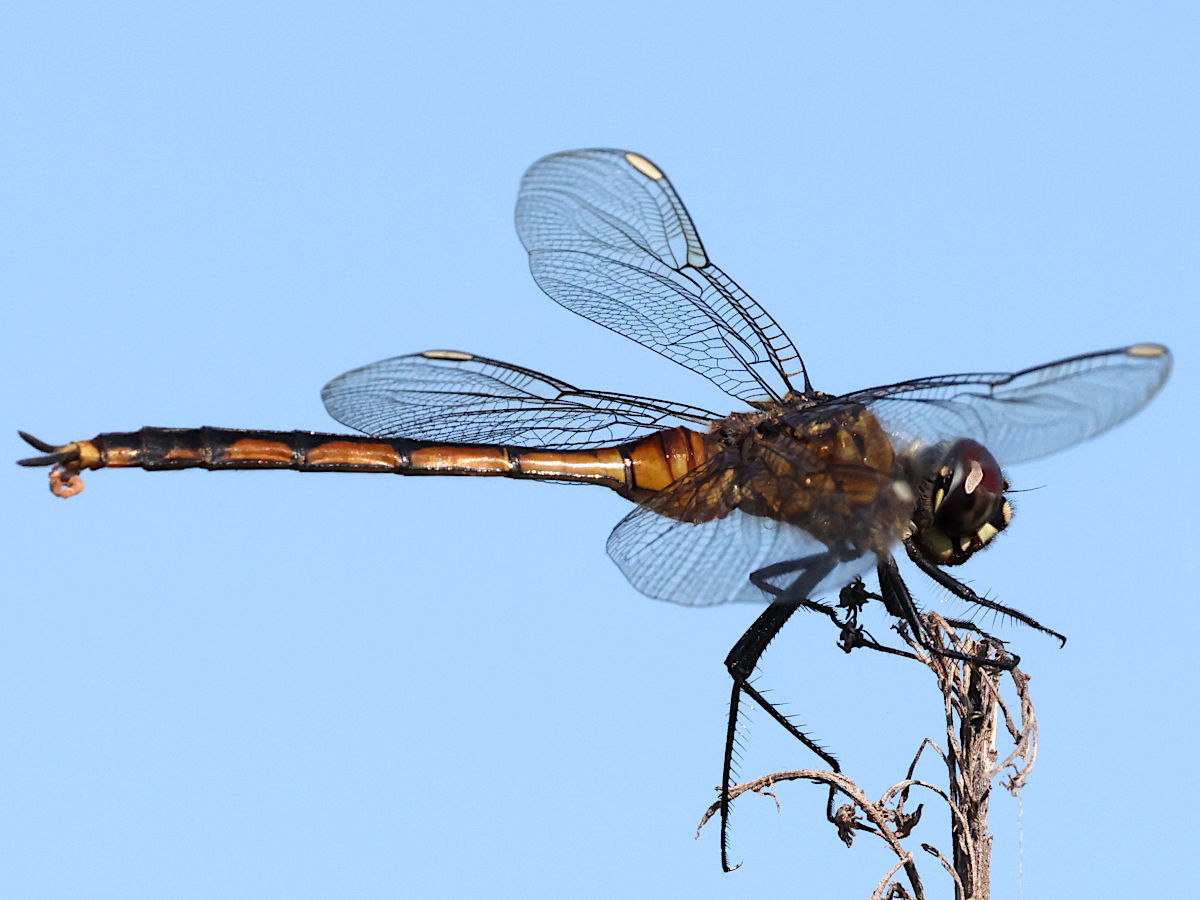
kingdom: Animalia
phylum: Arthropoda
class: Insecta
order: Odonata
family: Libellulidae
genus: Brachymesia
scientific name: Brachymesia gravida
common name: Four-spotted pennant
